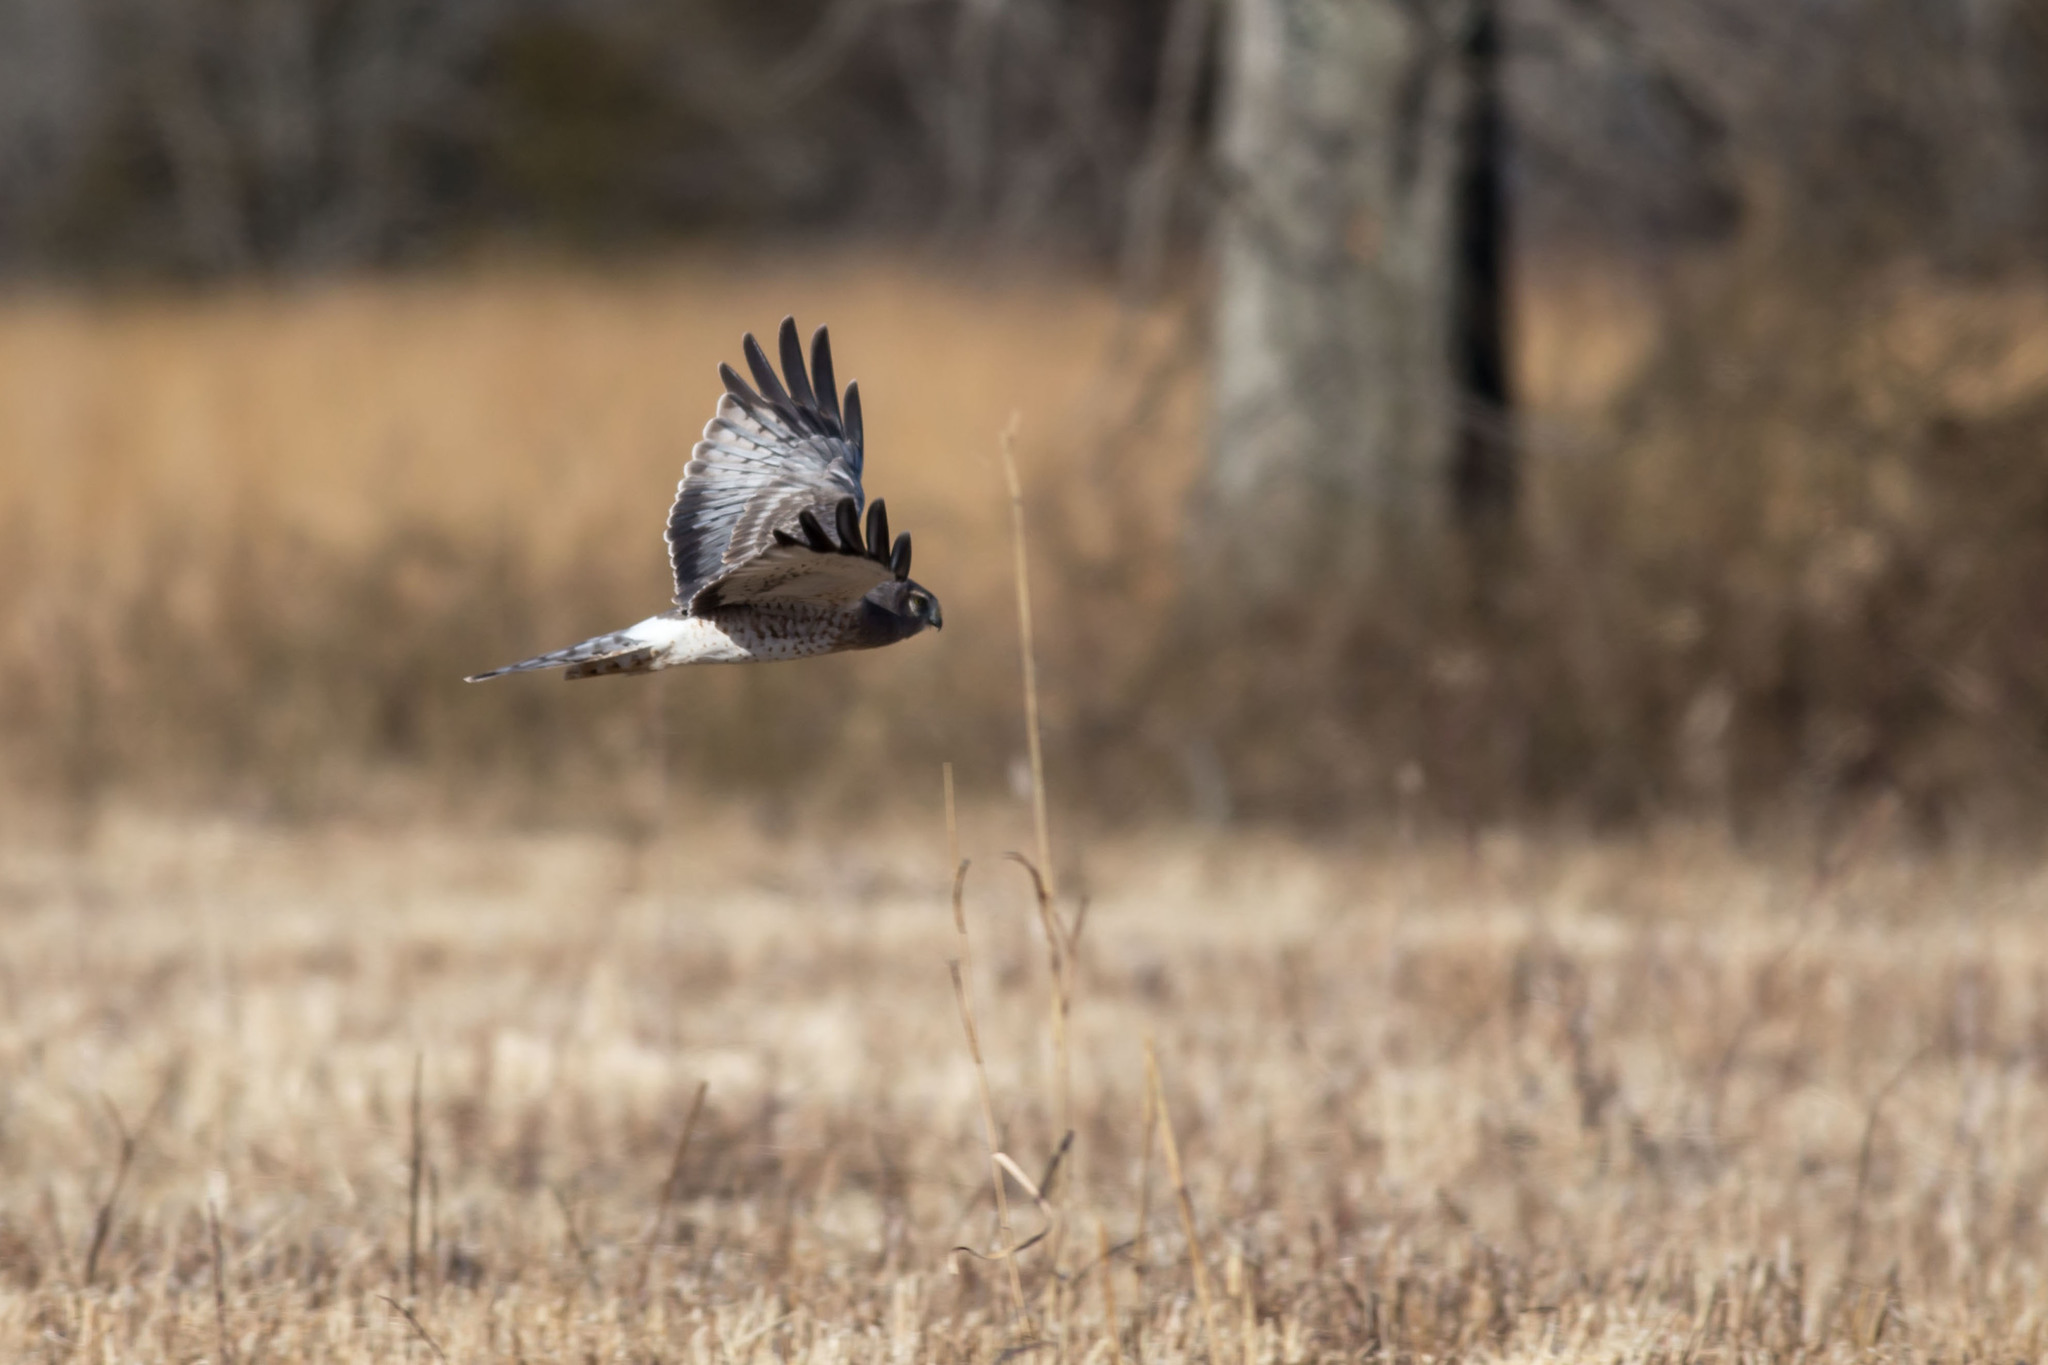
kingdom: Animalia
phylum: Chordata
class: Aves
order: Accipitriformes
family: Accipitridae
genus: Circus
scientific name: Circus cyaneus
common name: Hen harrier
